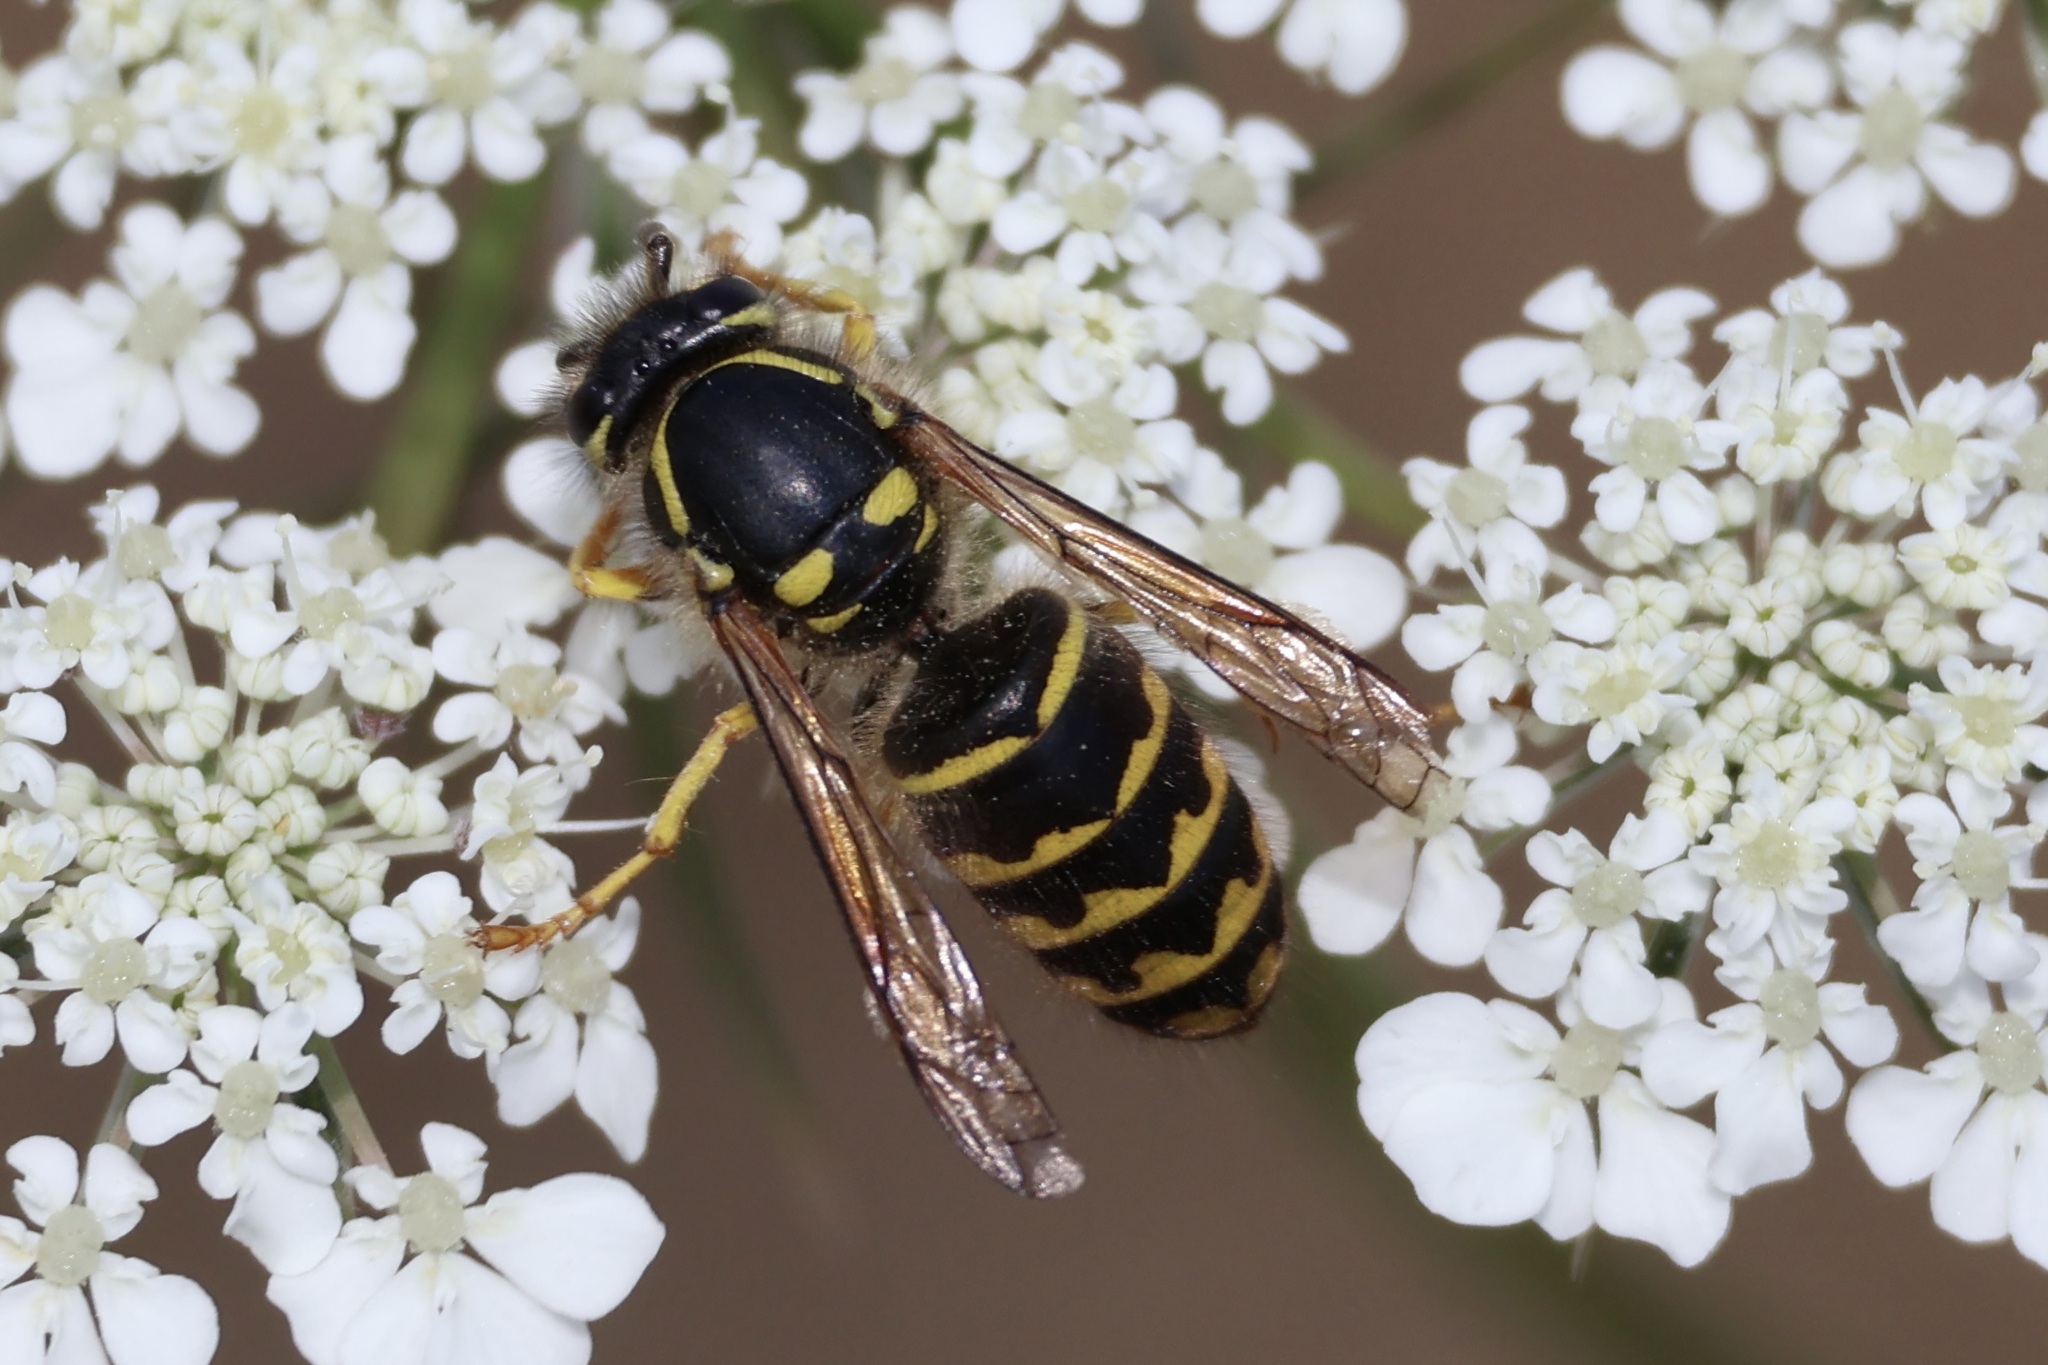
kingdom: Animalia
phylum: Arthropoda
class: Insecta
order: Hymenoptera
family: Vespidae
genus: Dolichovespula
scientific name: Dolichovespula arenaria
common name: Aerial yellowjacket
